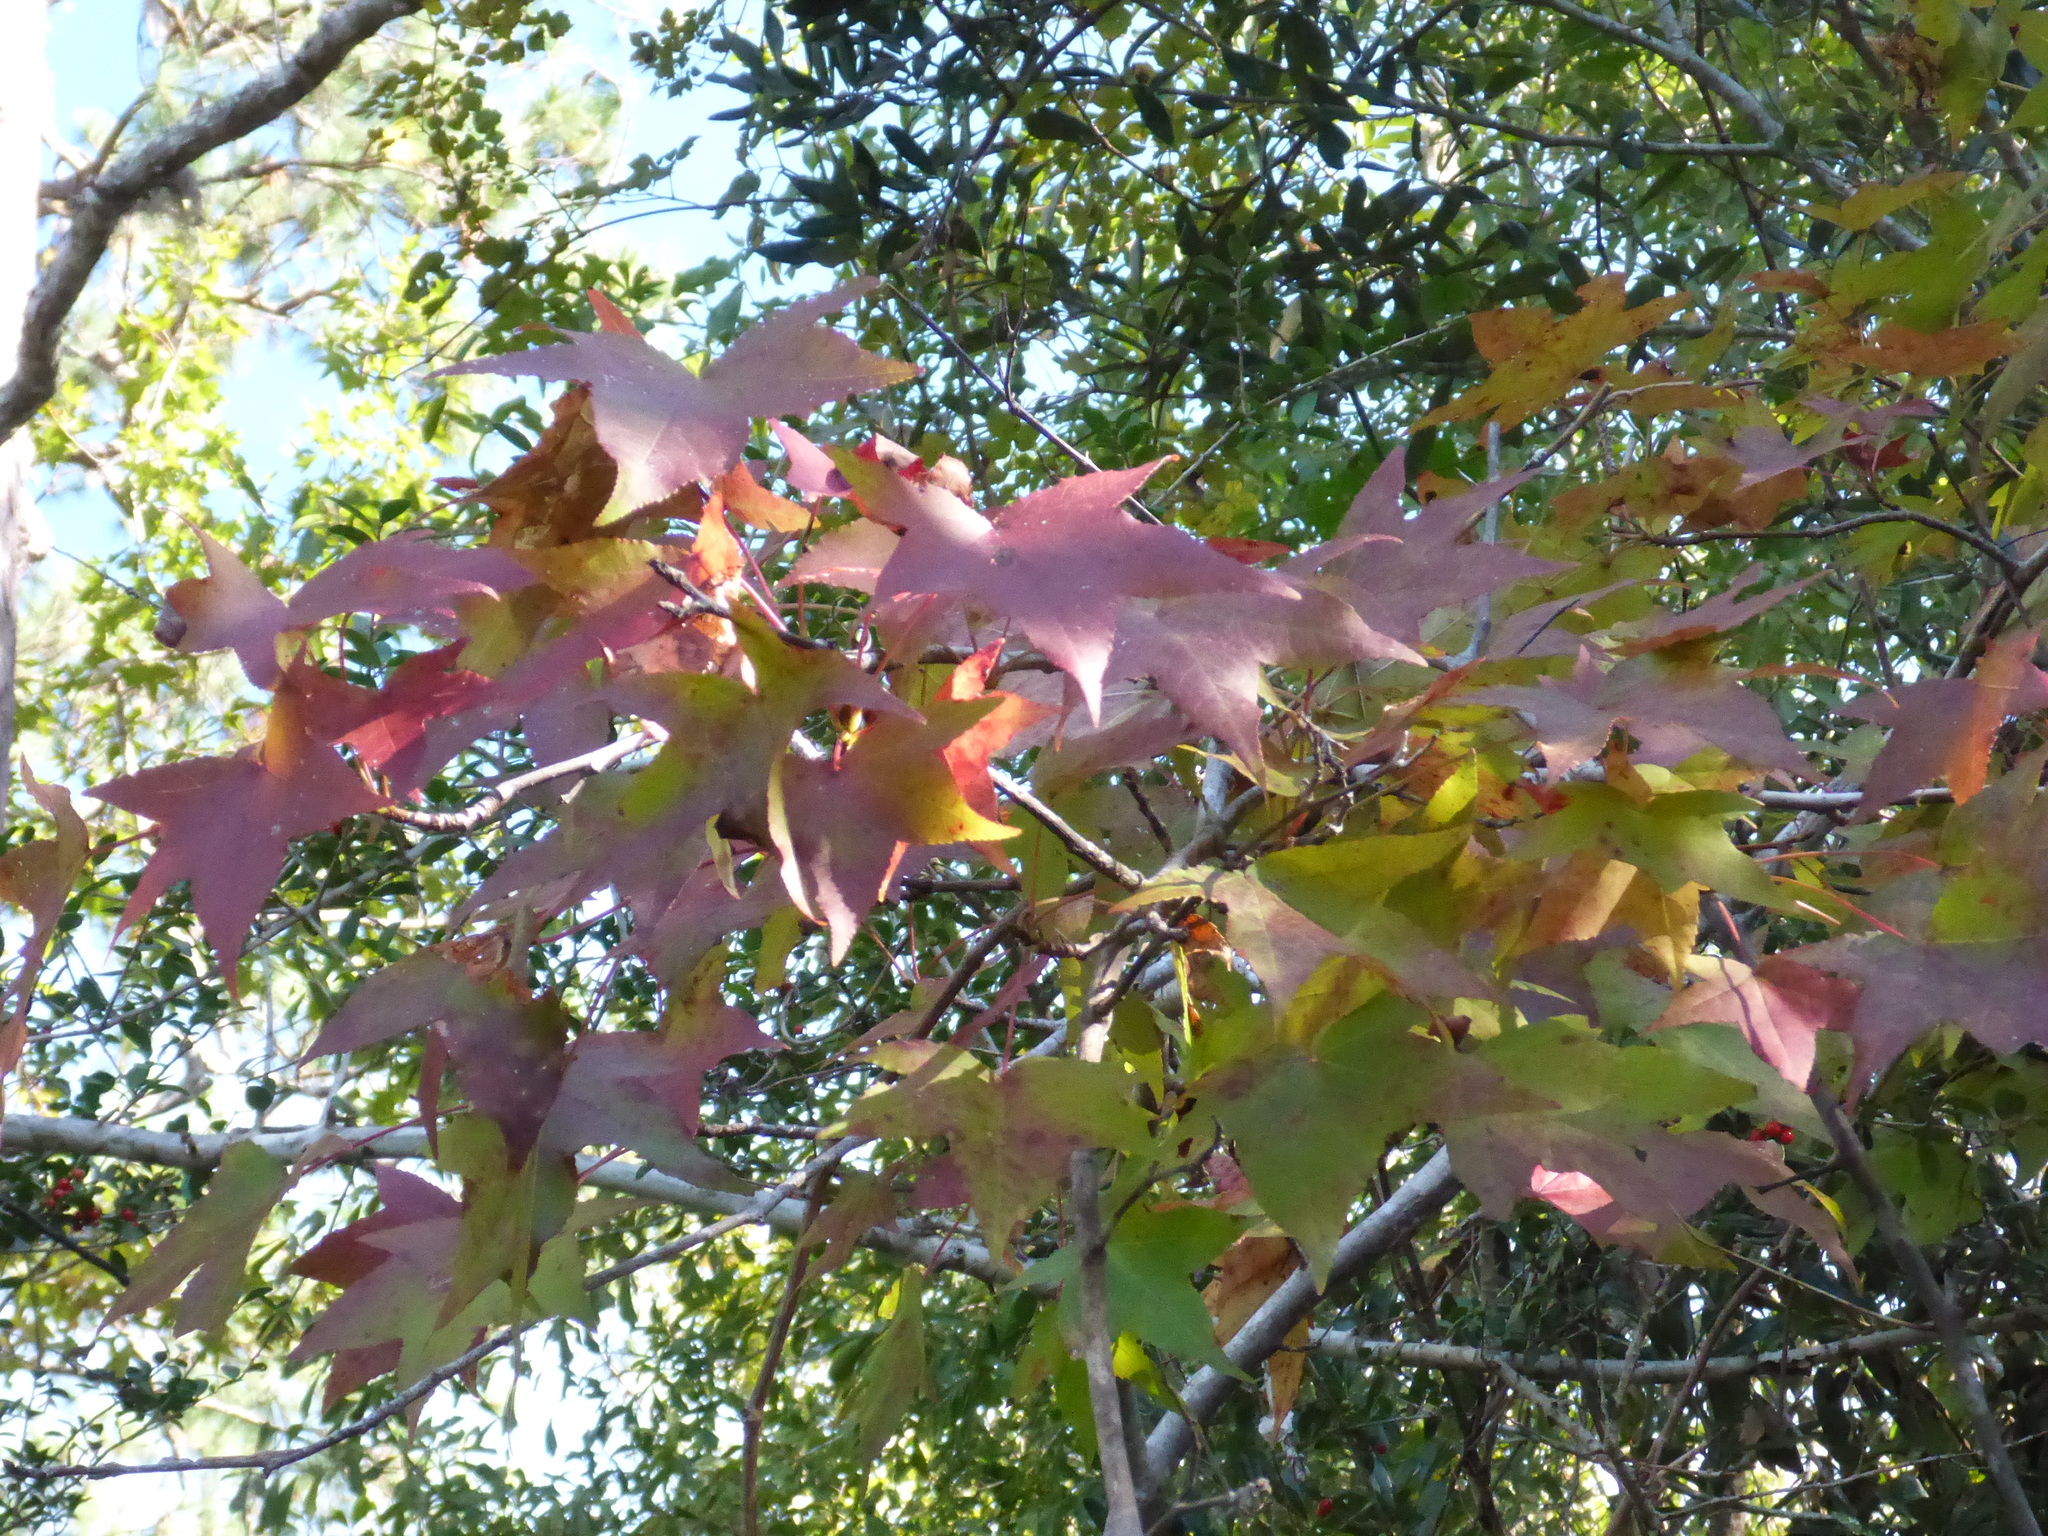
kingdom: Plantae
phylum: Tracheophyta
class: Magnoliopsida
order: Saxifragales
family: Altingiaceae
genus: Liquidambar
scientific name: Liquidambar styraciflua
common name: Sweet gum
